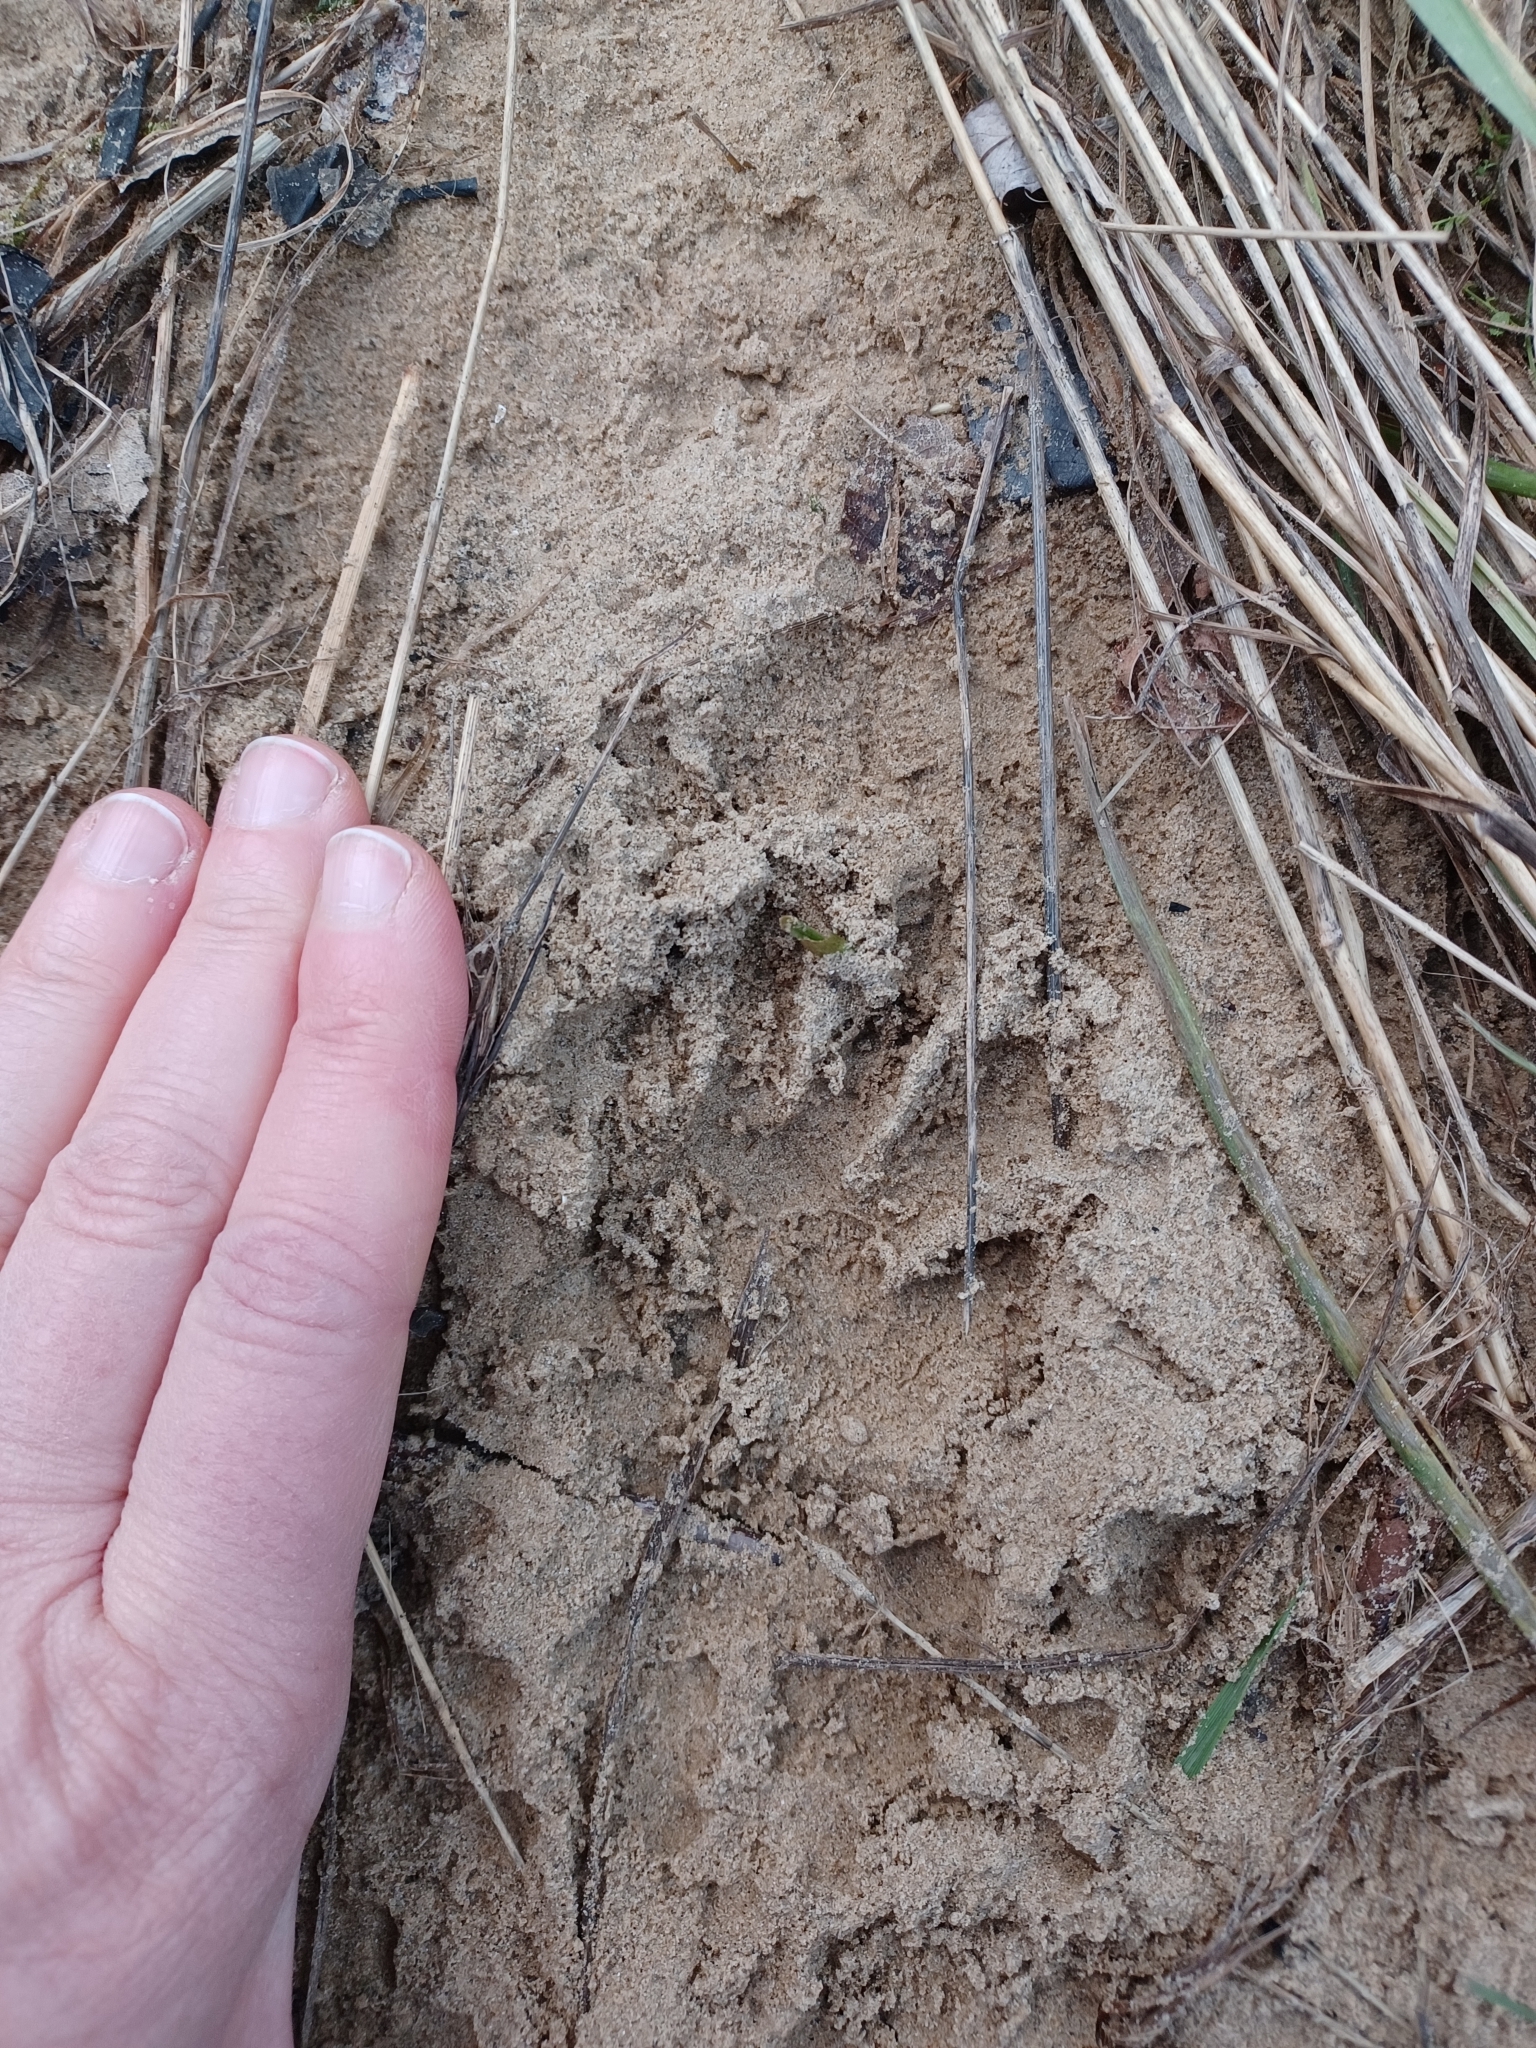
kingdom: Animalia
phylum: Chordata
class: Mammalia
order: Carnivora
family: Procyonidae
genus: Procyon
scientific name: Procyon lotor
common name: Raccoon
